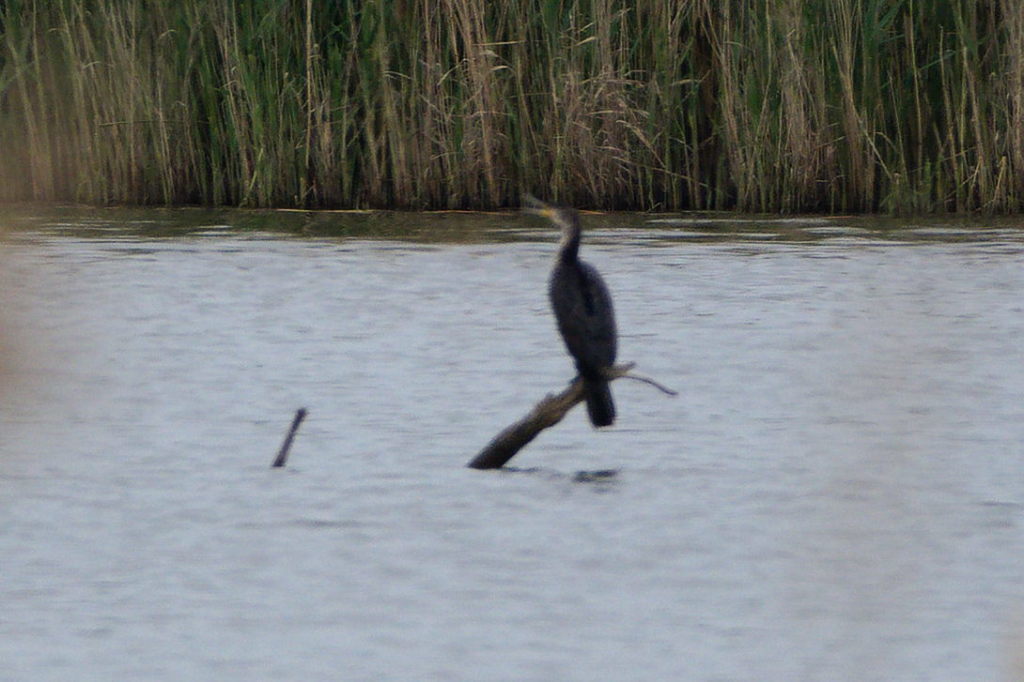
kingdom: Animalia
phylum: Chordata
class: Aves
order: Suliformes
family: Phalacrocoracidae
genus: Phalacrocorax
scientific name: Phalacrocorax carbo
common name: Great cormorant
